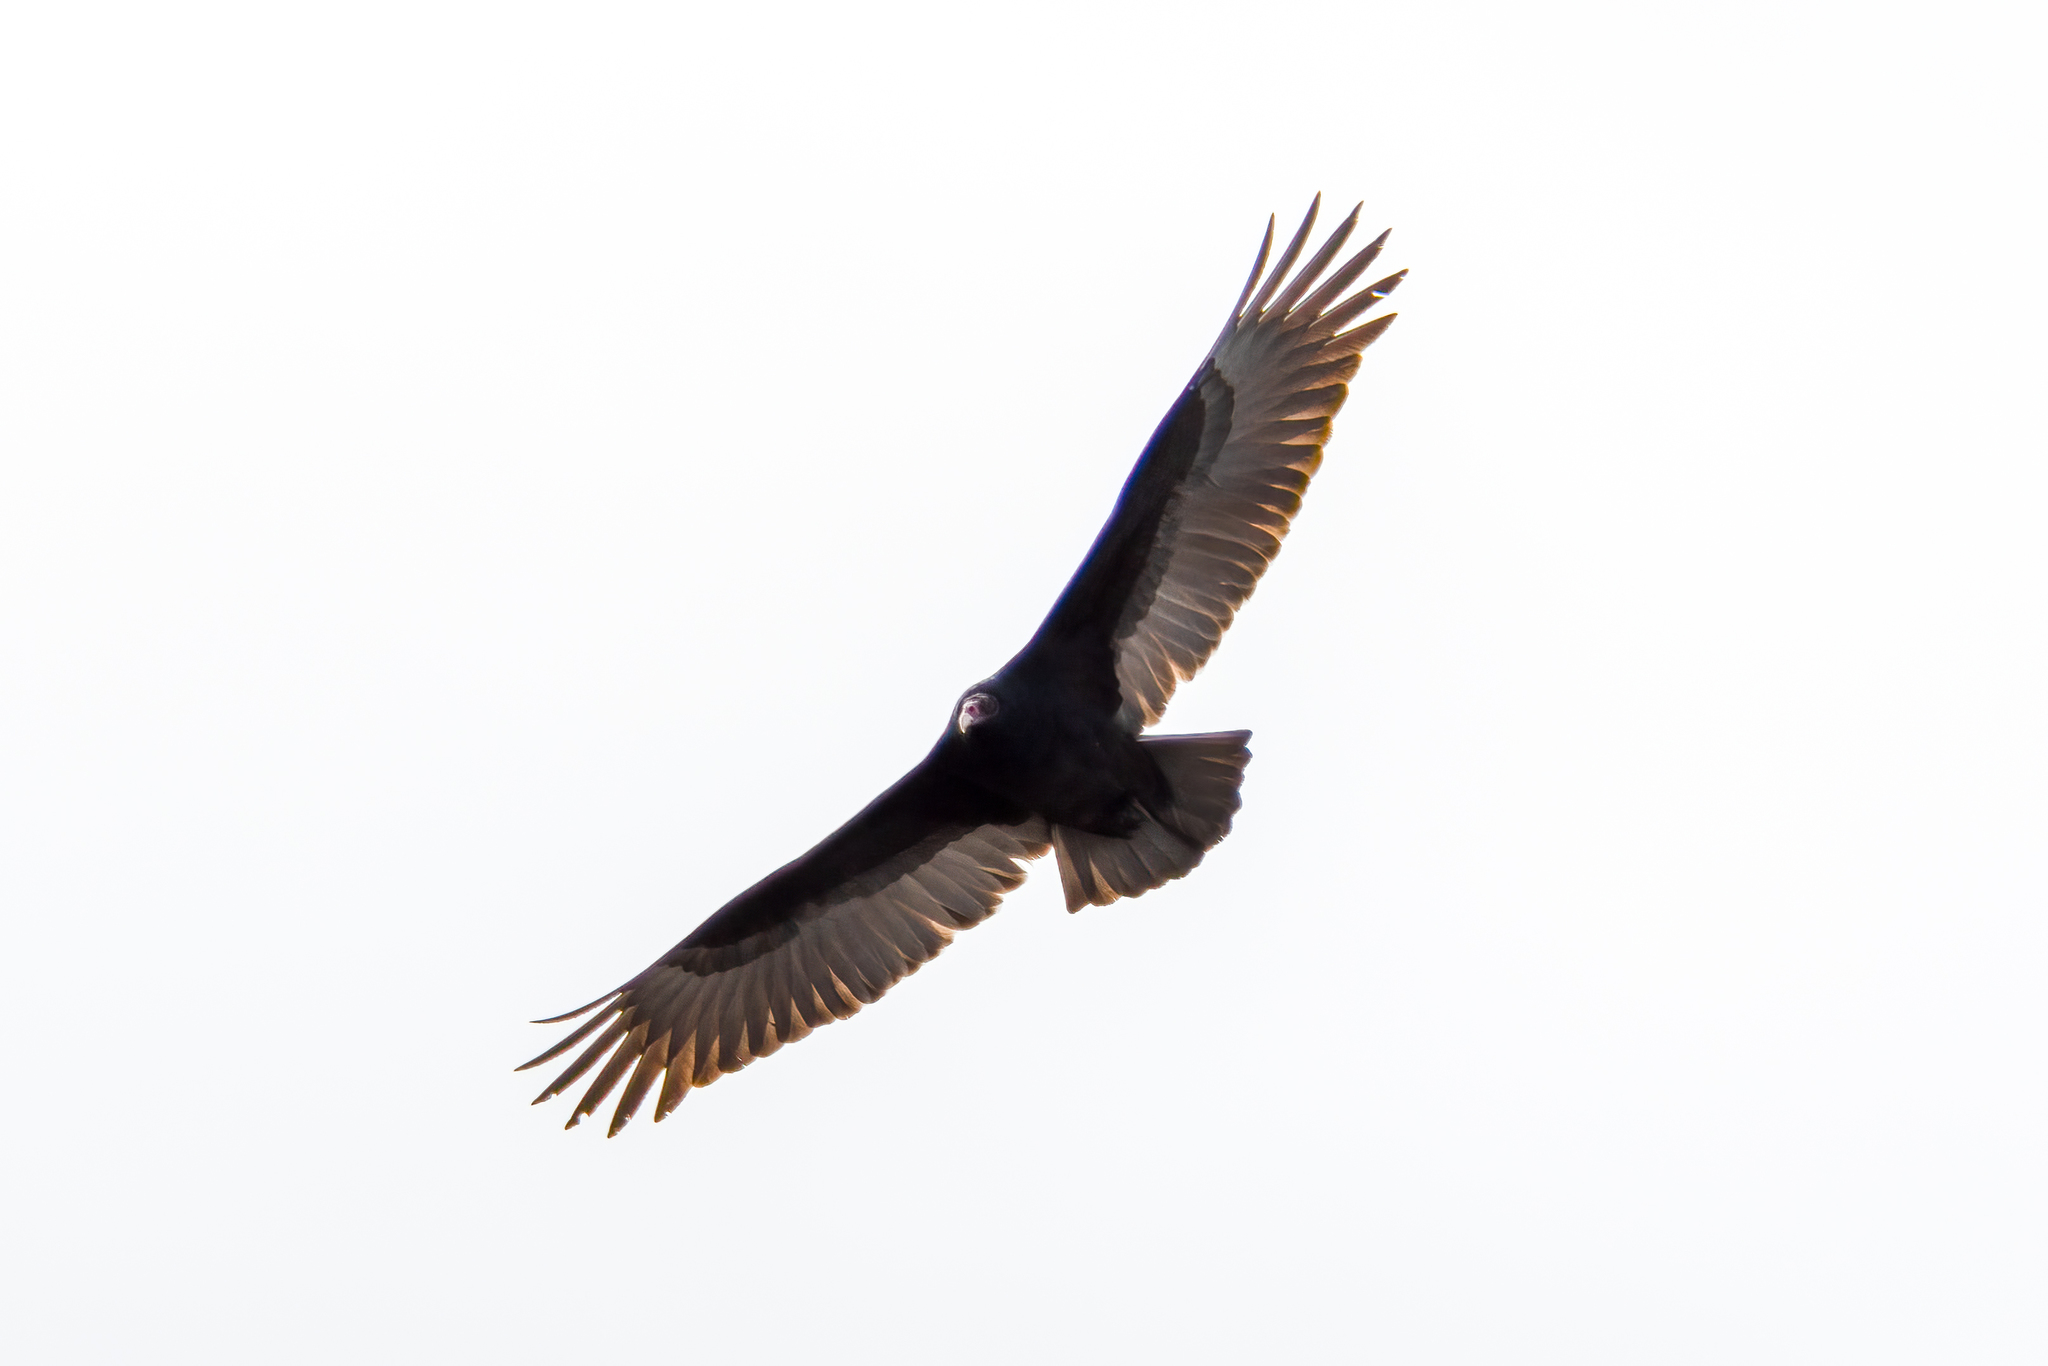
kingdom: Animalia
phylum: Chordata
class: Aves
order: Accipitriformes
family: Cathartidae
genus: Cathartes
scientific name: Cathartes aura
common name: Turkey vulture
